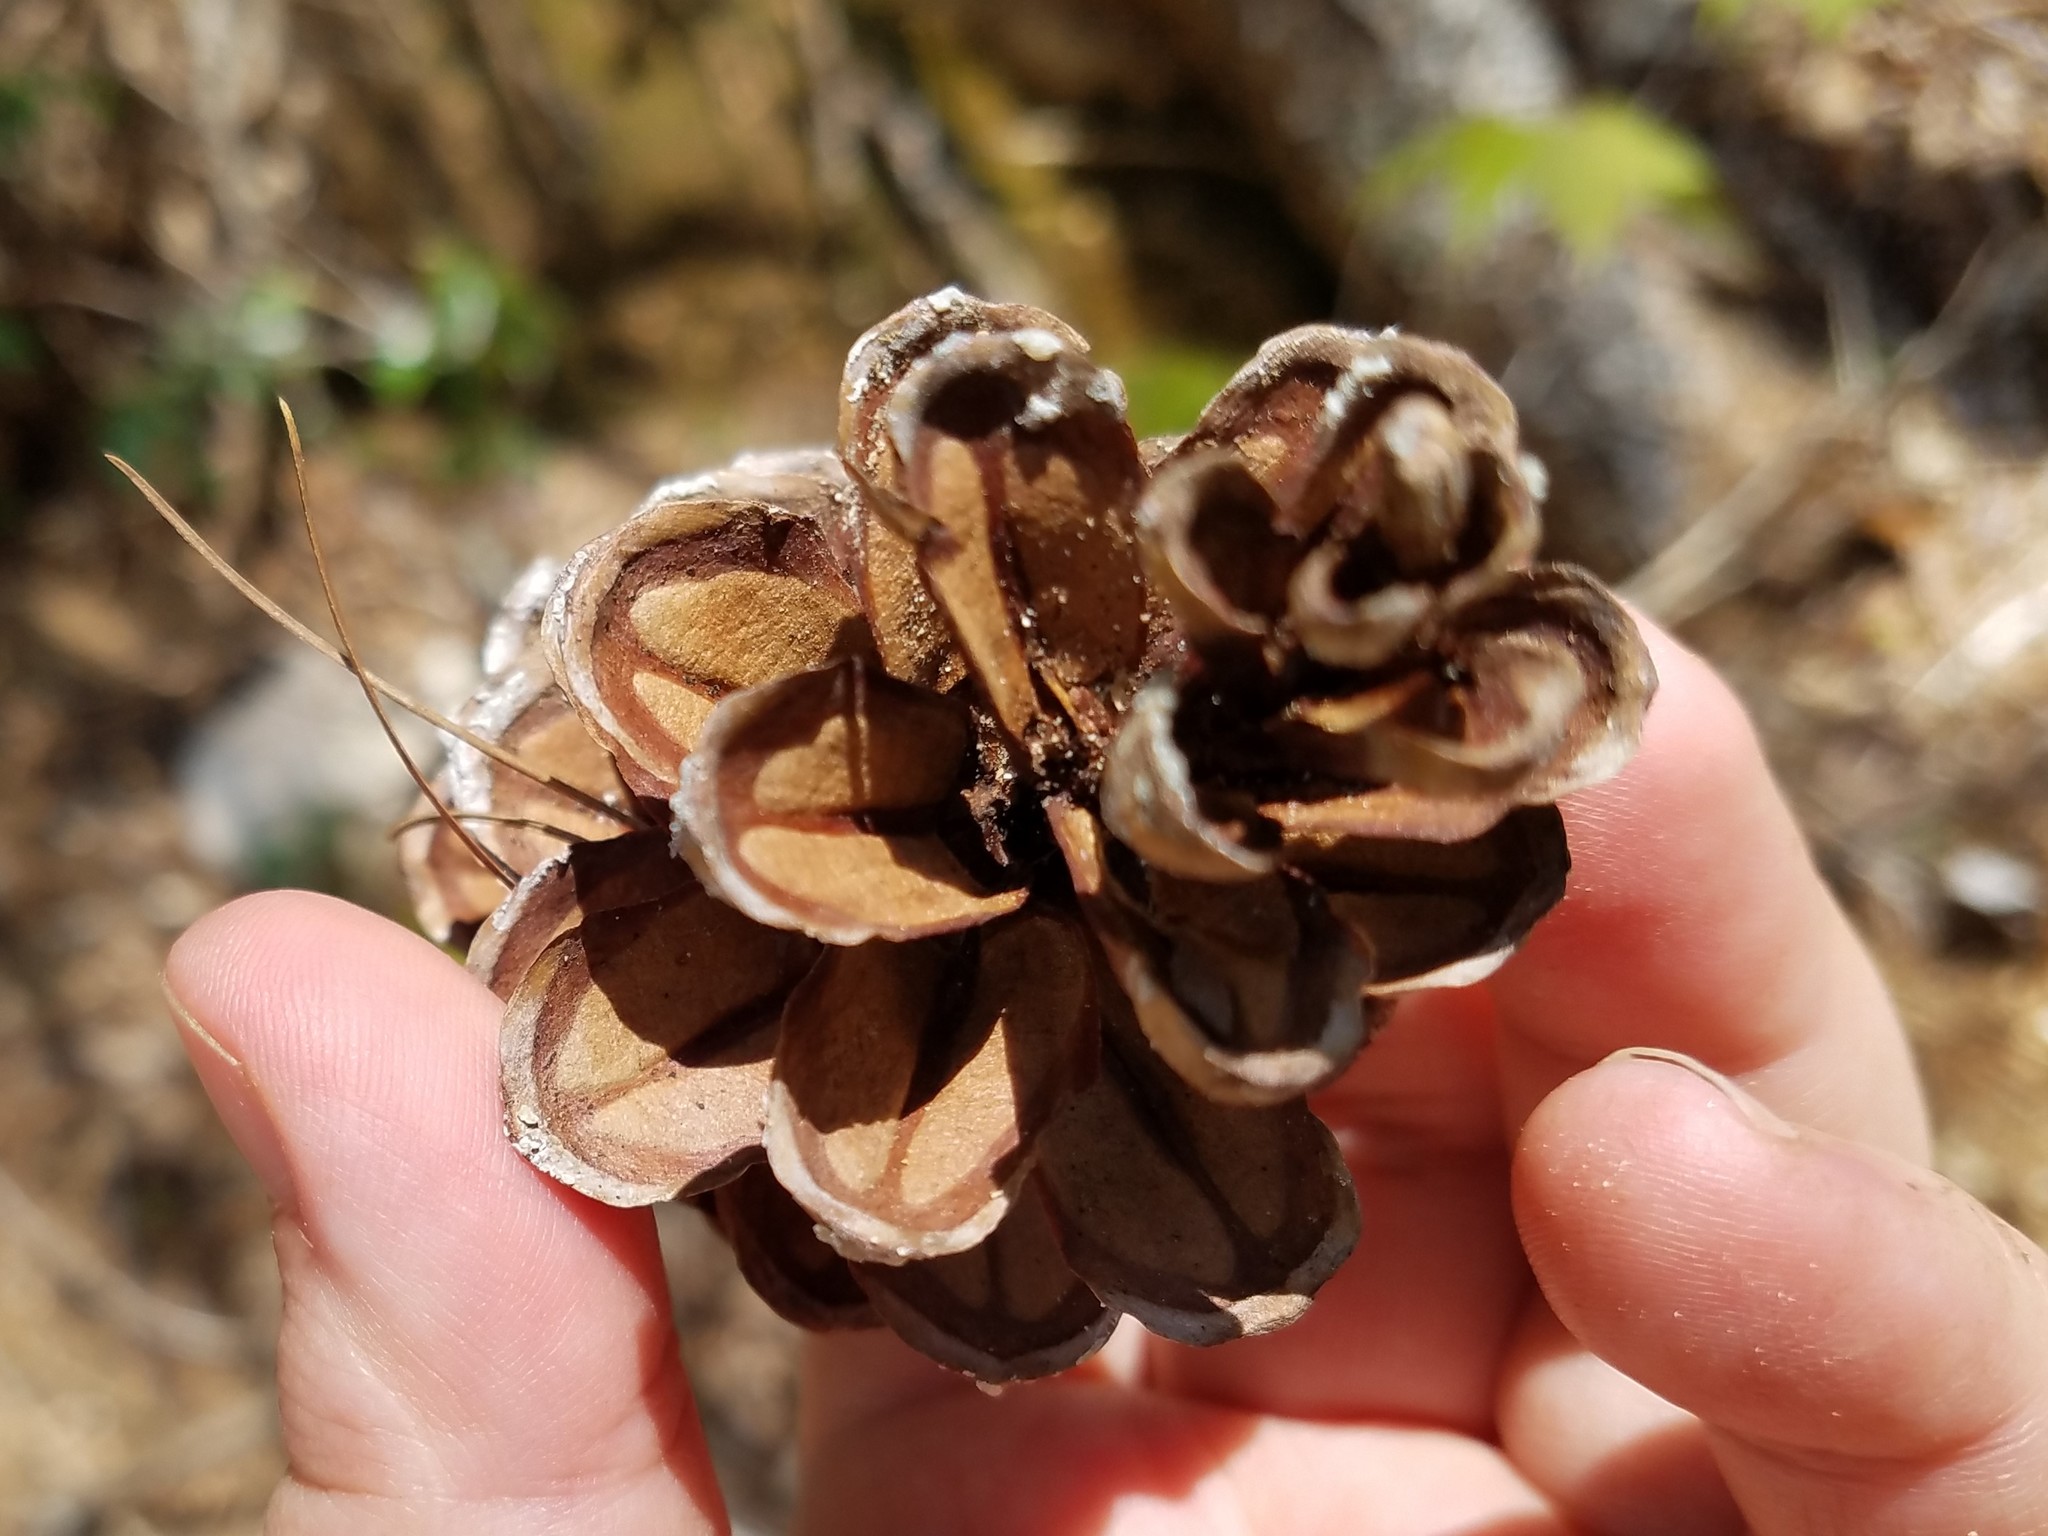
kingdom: Plantae
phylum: Tracheophyta
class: Pinopsida
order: Pinales
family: Pinaceae
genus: Pinus
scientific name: Pinus strobus
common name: Weymouth pine
